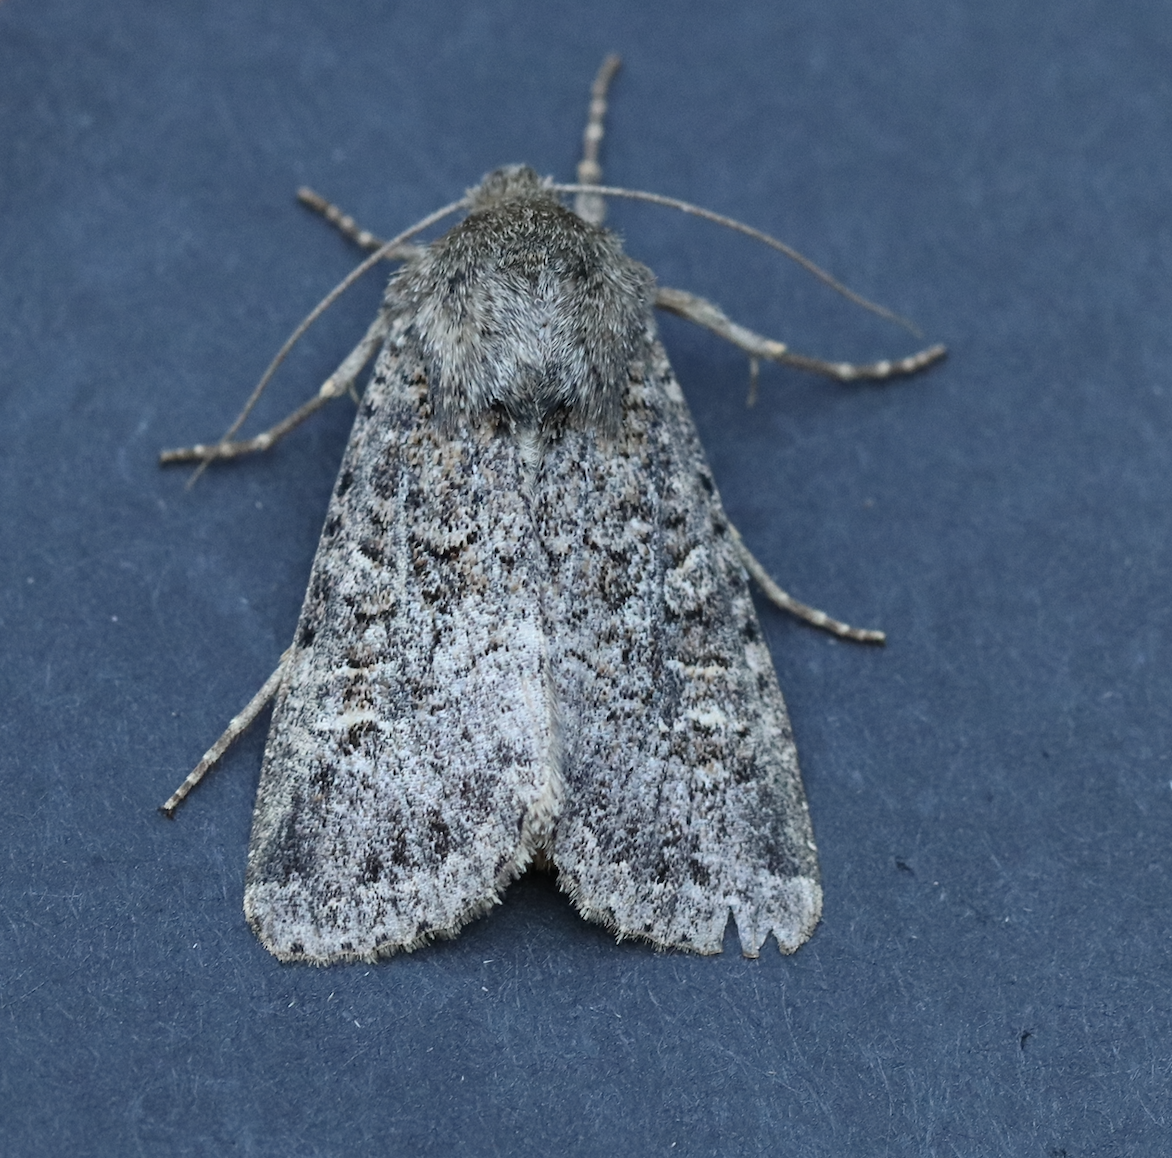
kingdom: Animalia
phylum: Arthropoda
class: Insecta
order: Lepidoptera
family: Noctuidae
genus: Apamea
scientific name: Apamea devastator
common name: Glassy cutworm
